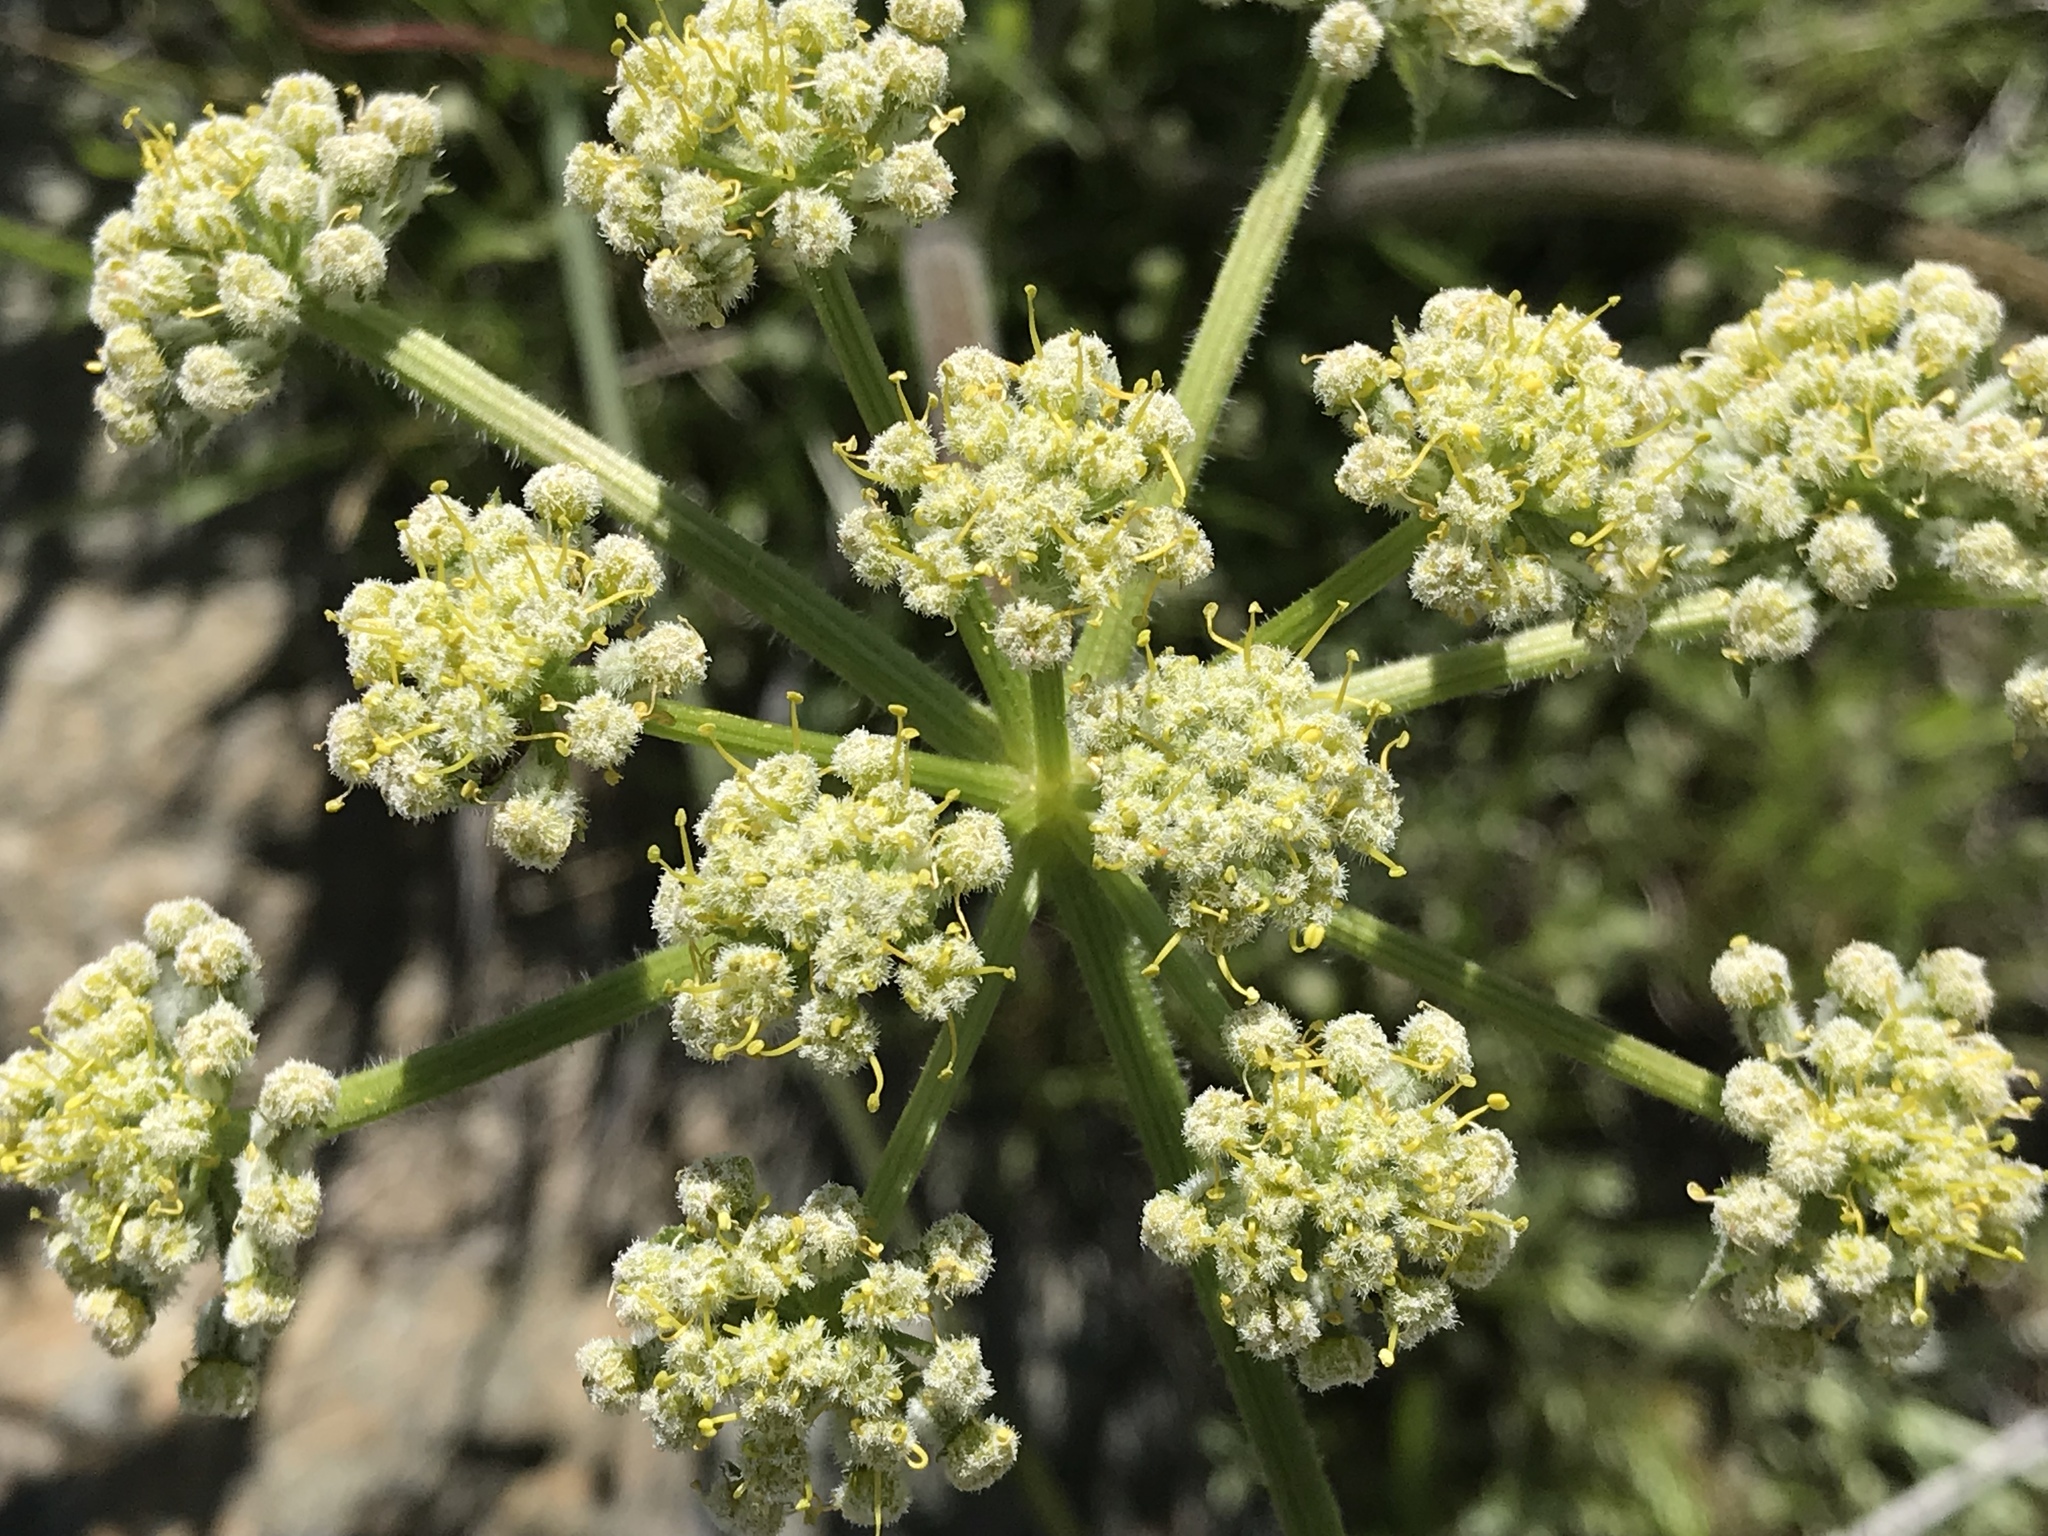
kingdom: Plantae
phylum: Tracheophyta
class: Magnoliopsida
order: Apiales
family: Apiaceae
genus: Lomatium
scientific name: Lomatium dasycarpum
